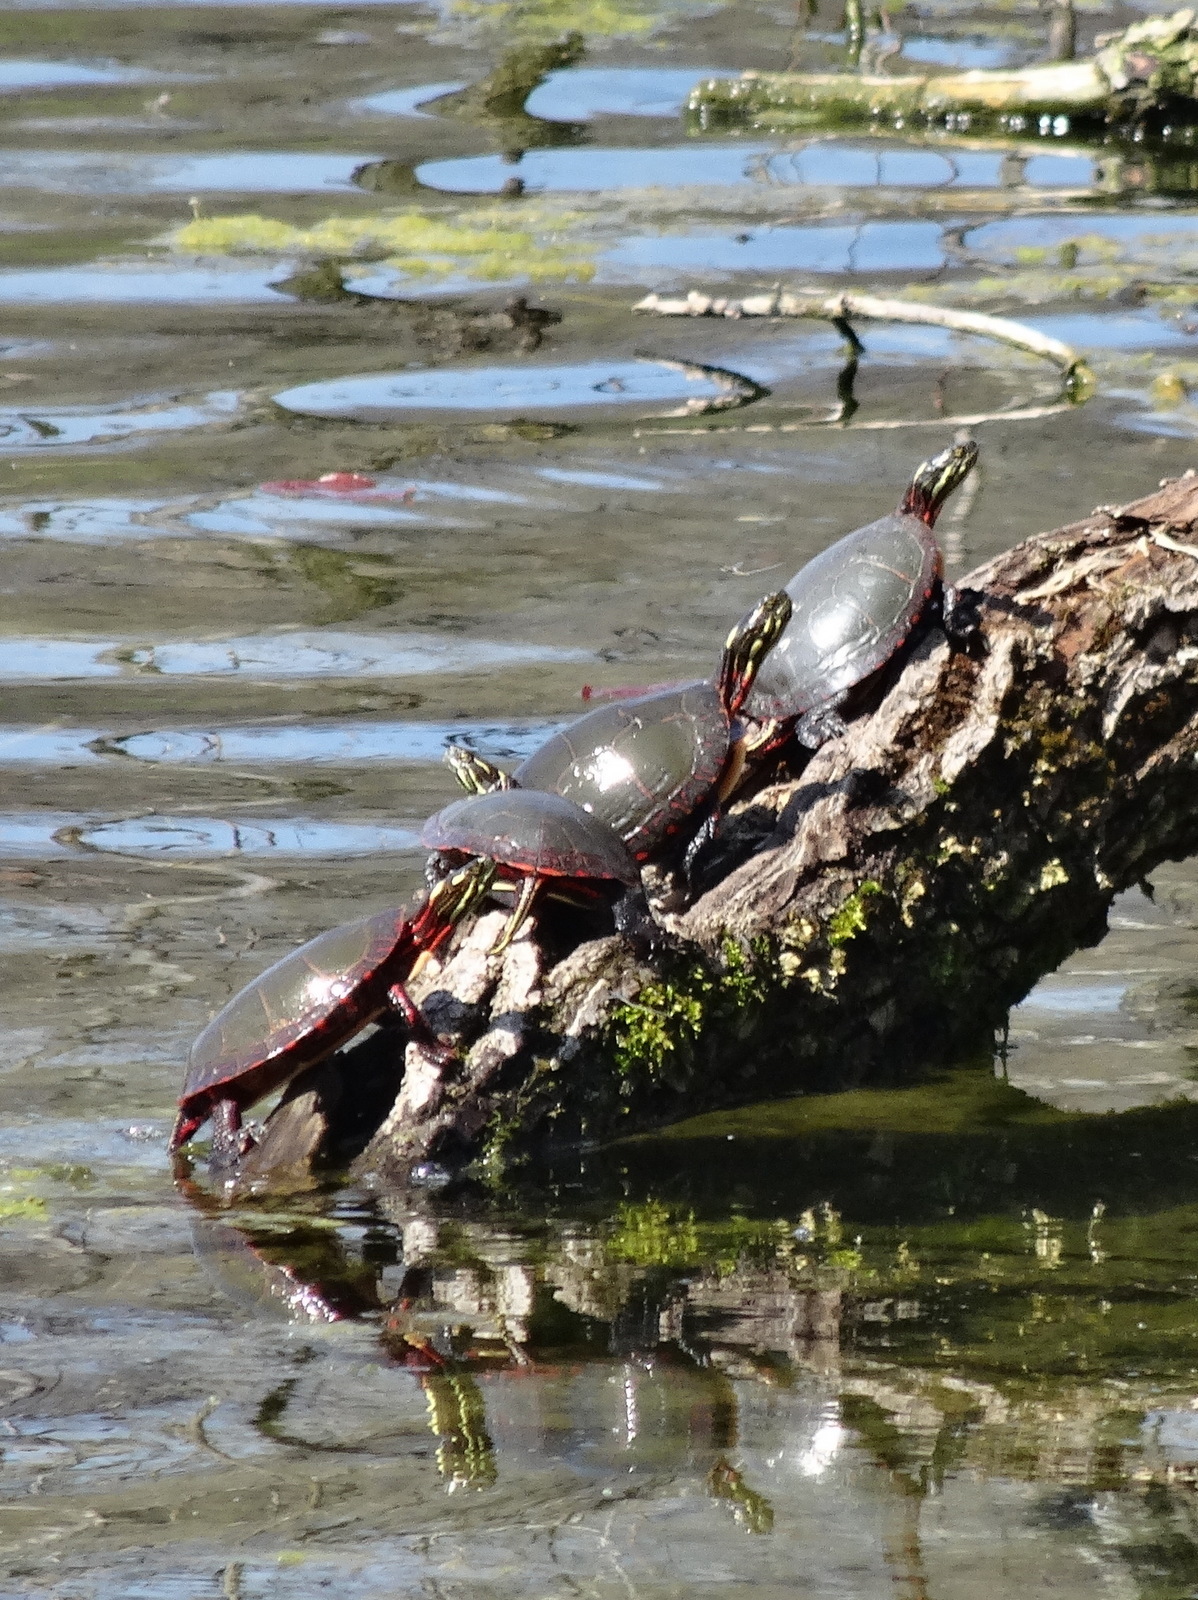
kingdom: Animalia
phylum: Chordata
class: Testudines
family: Emydidae
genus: Chrysemys
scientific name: Chrysemys picta
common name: Painted turtle
